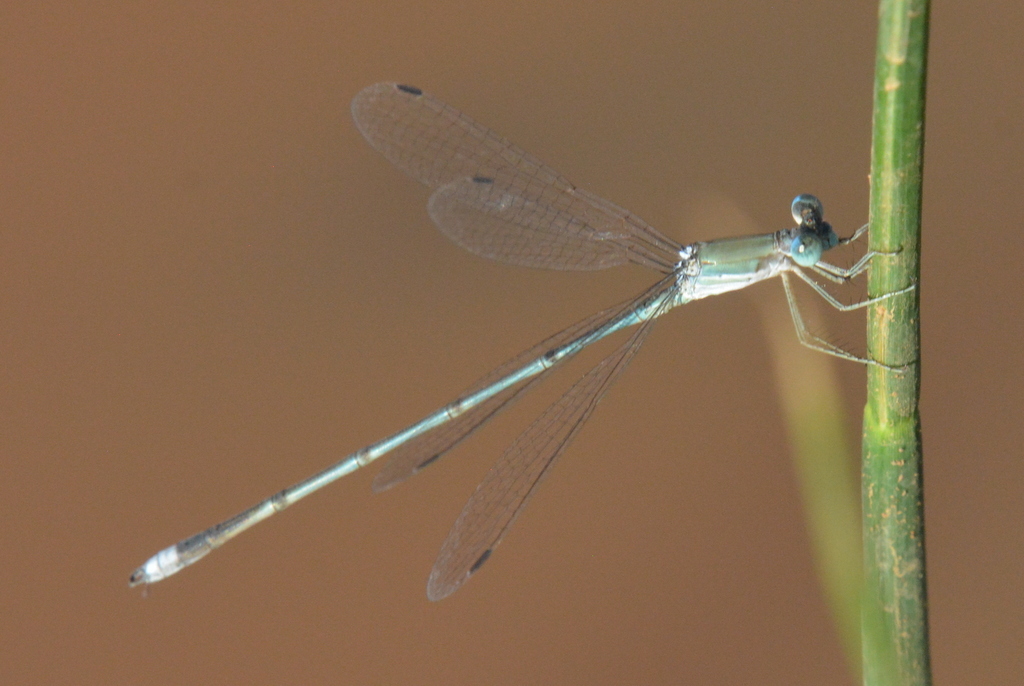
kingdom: Animalia
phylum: Arthropoda
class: Insecta
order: Odonata
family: Lestidae
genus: Lestes
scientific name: Lestes pallidus
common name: Pallid spreadwing
